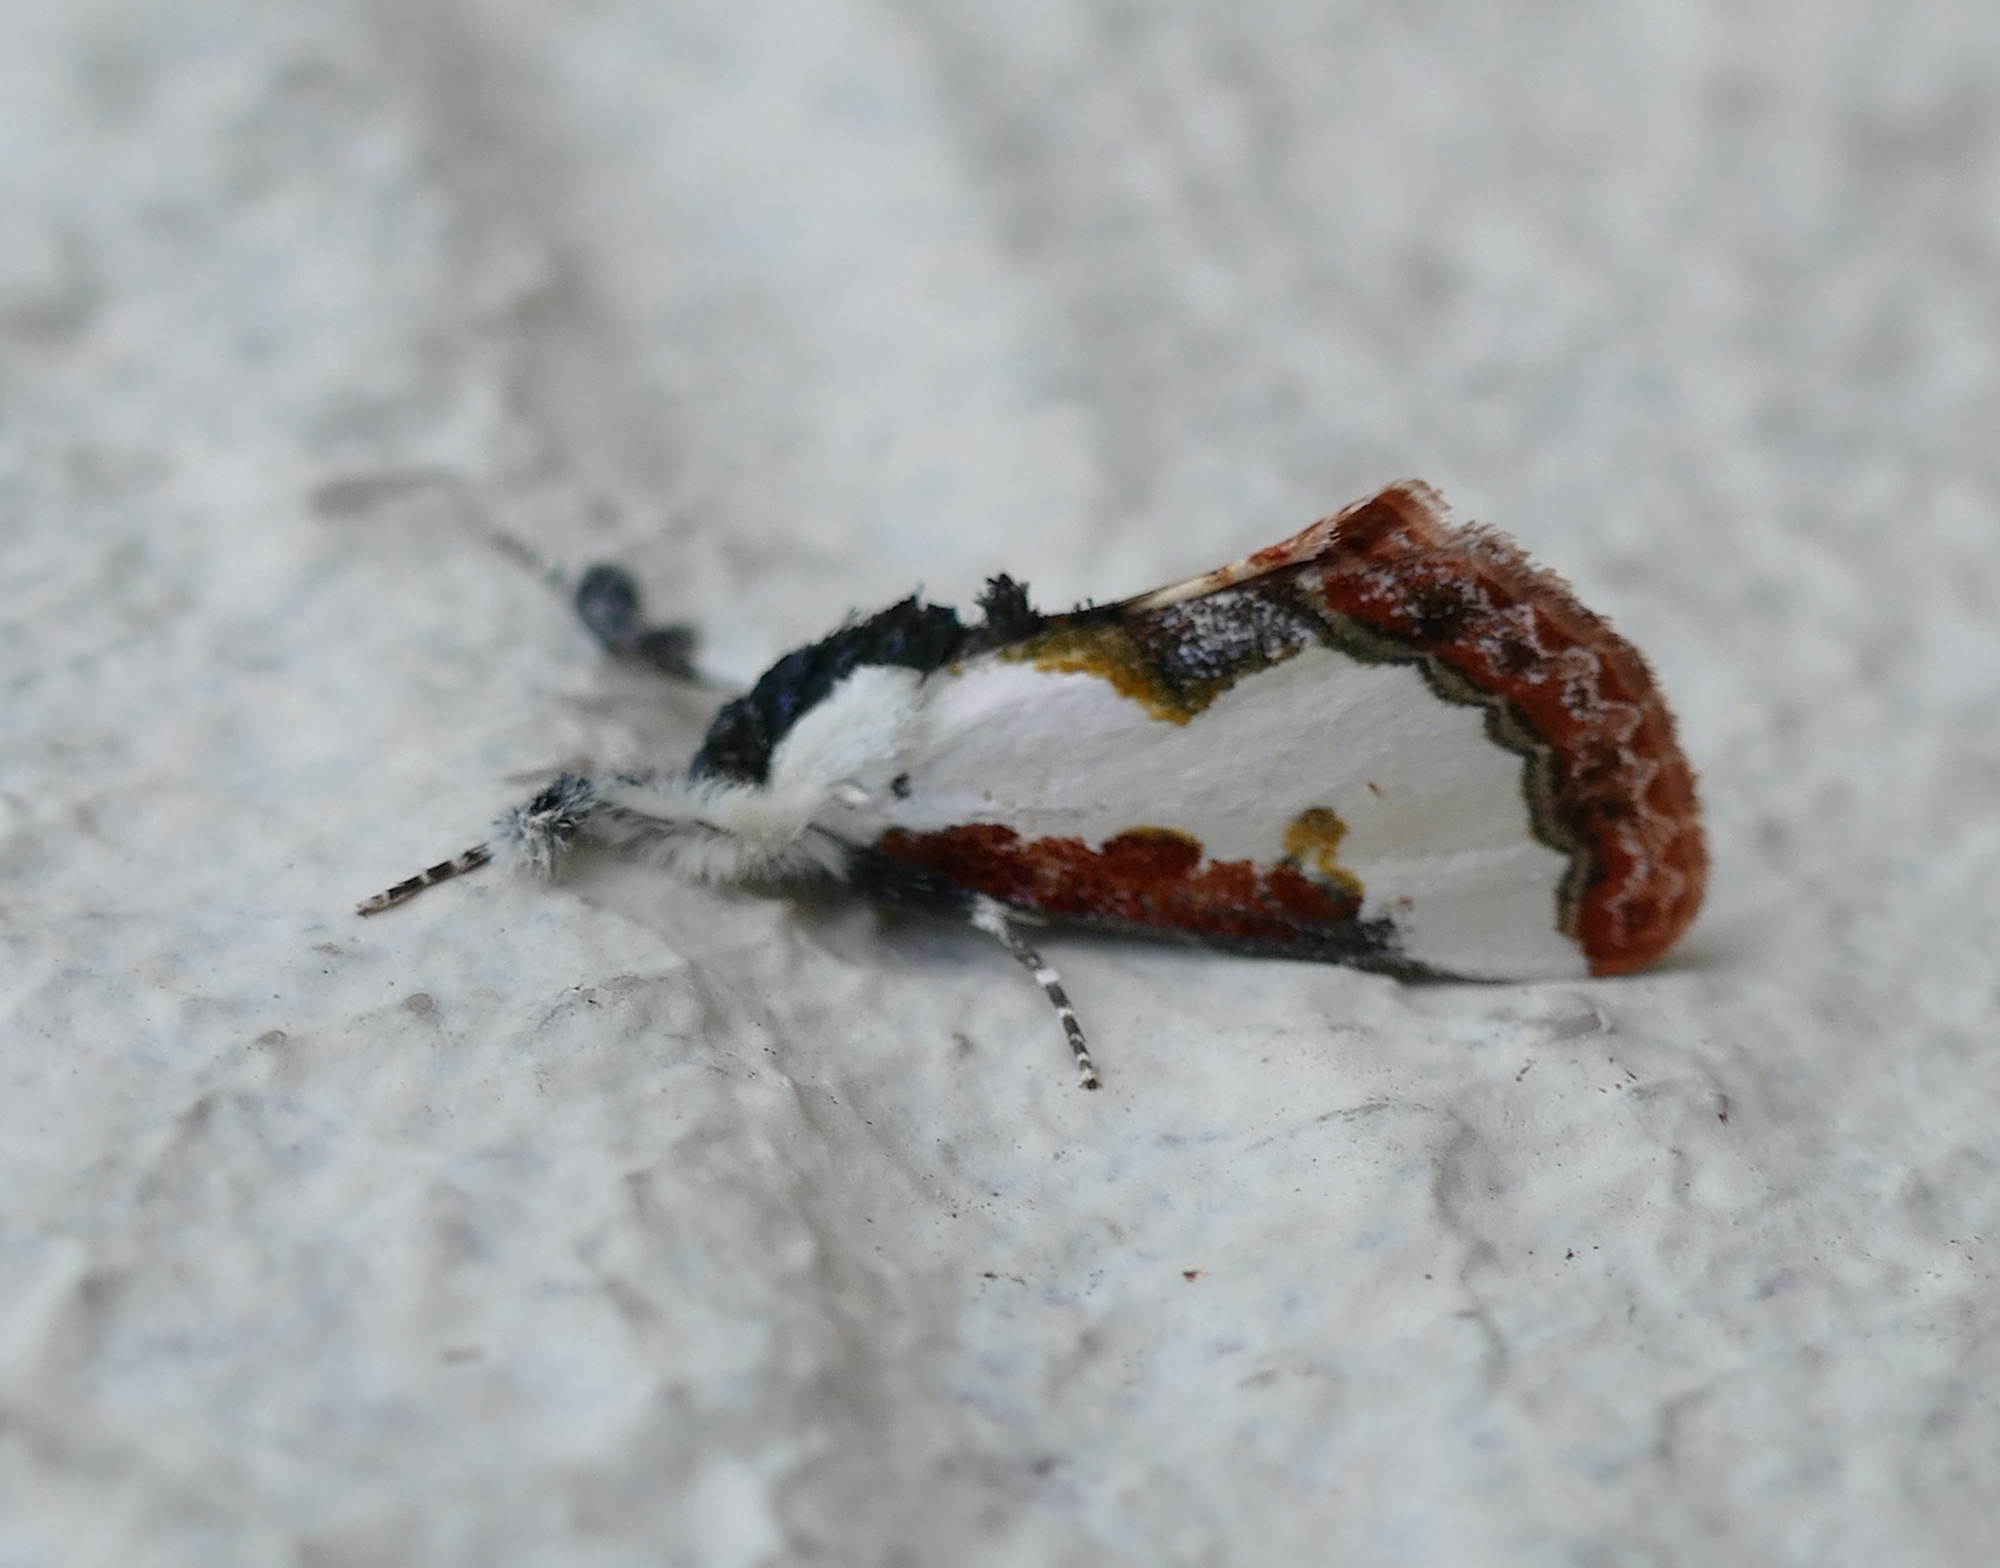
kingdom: Animalia
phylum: Arthropoda
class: Insecta
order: Lepidoptera
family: Noctuidae
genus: Eudryas
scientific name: Eudryas unio
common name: Pearly wood-nymph
